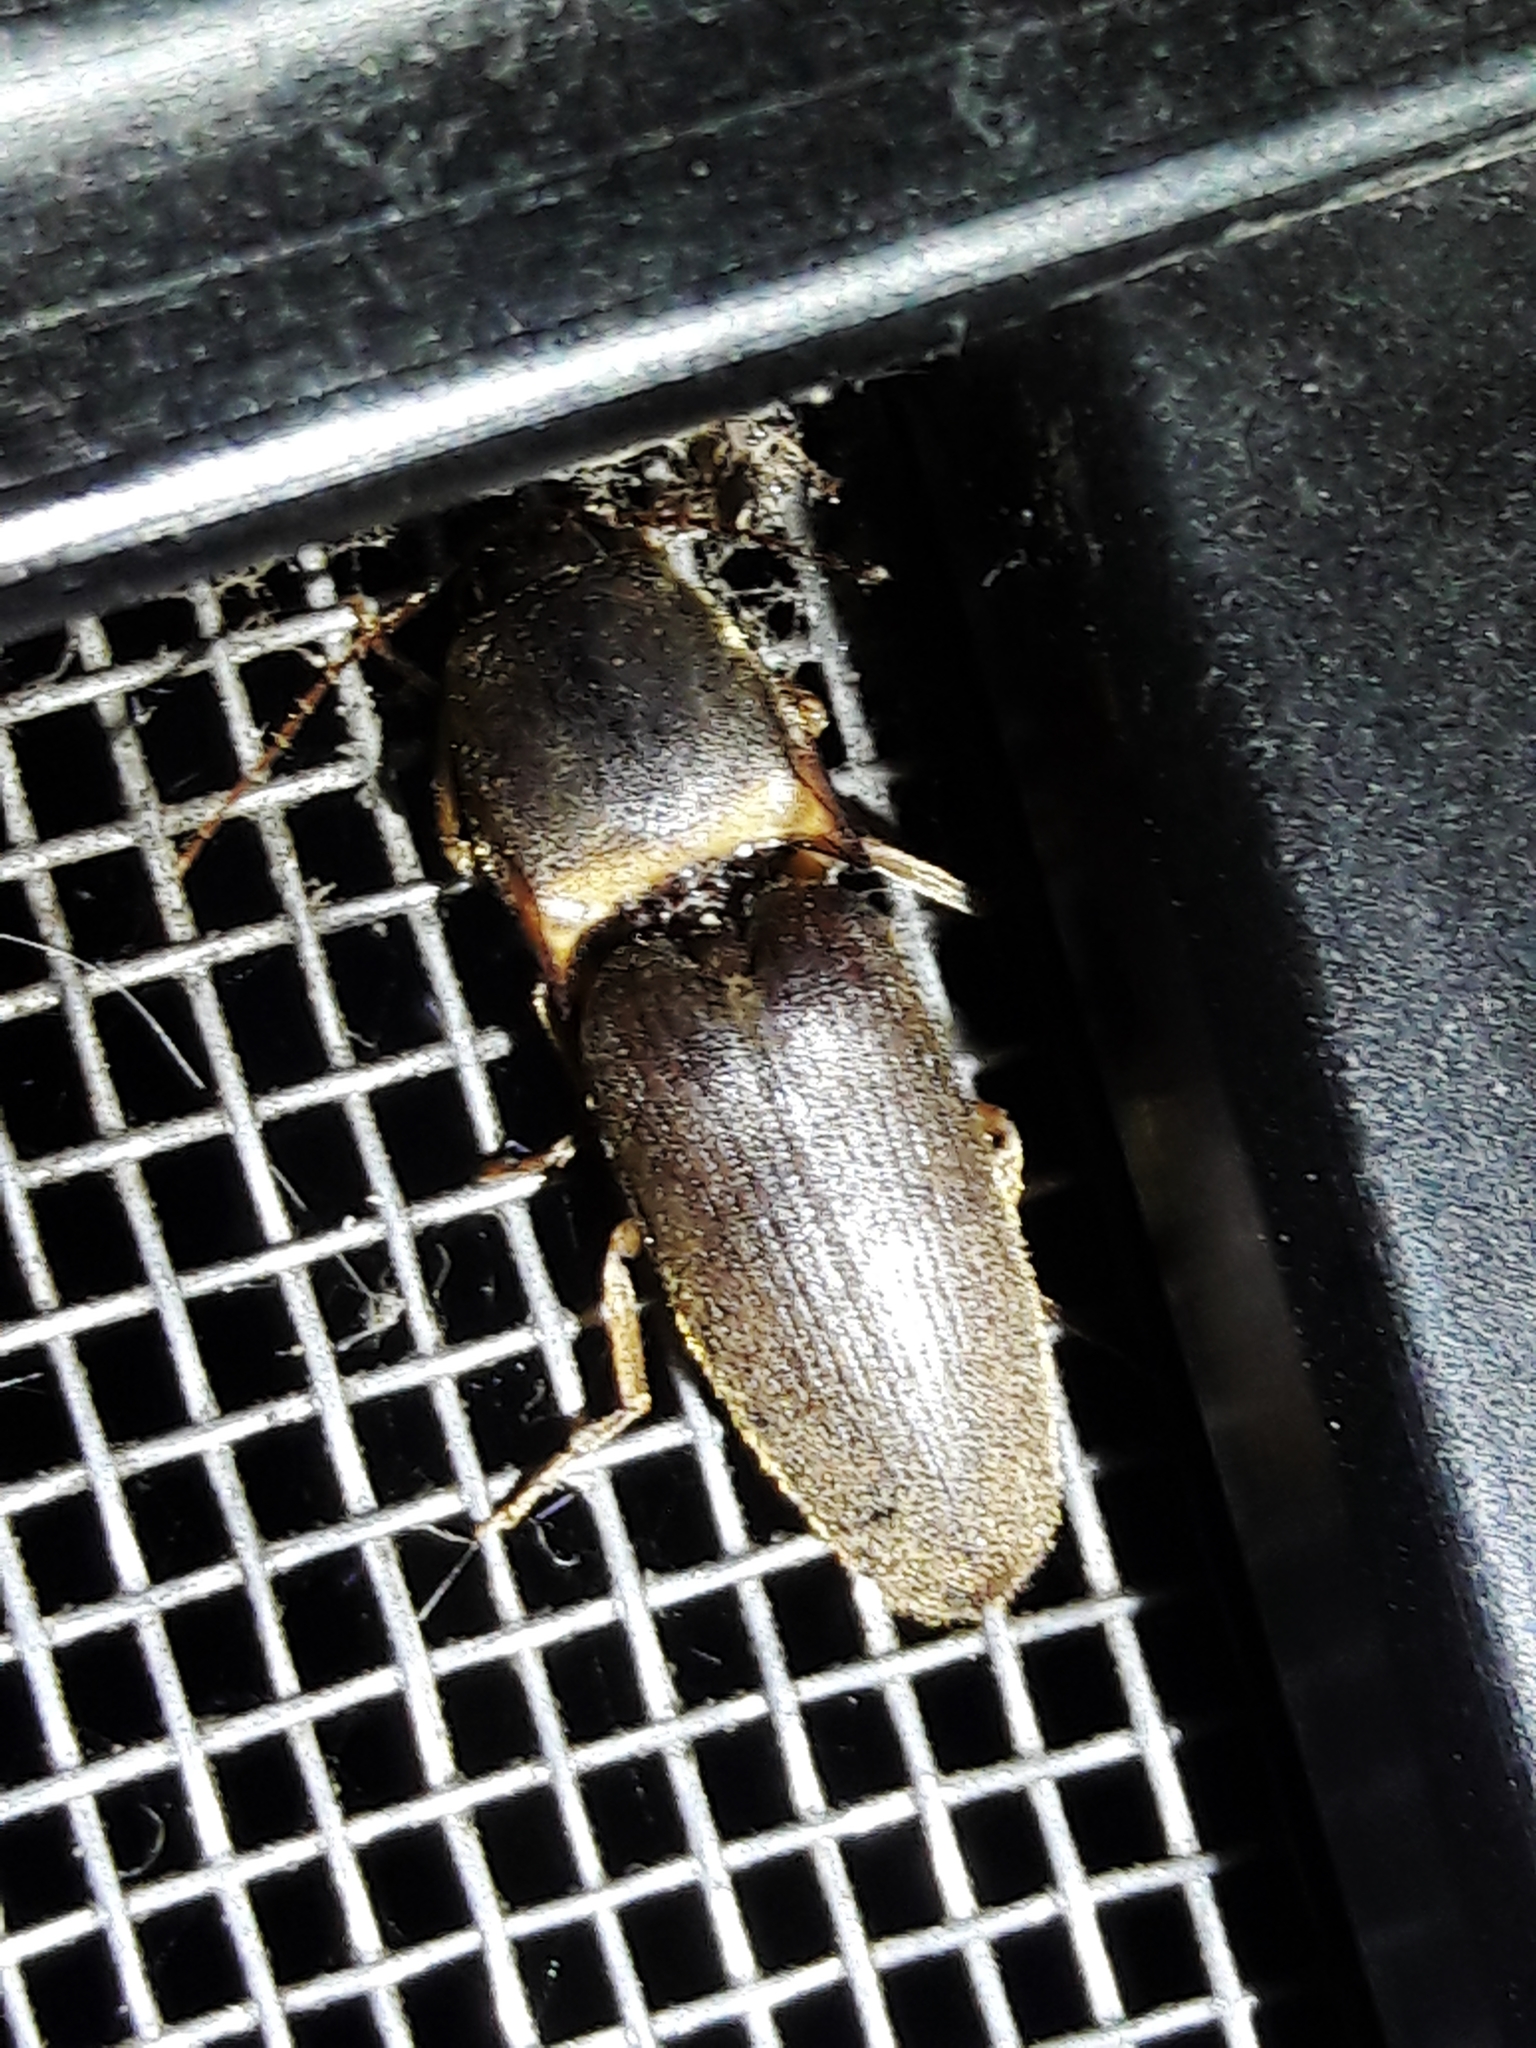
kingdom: Animalia
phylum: Arthropoda
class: Insecta
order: Coleoptera
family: Elateridae
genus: Monocrepidius
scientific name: Monocrepidius
